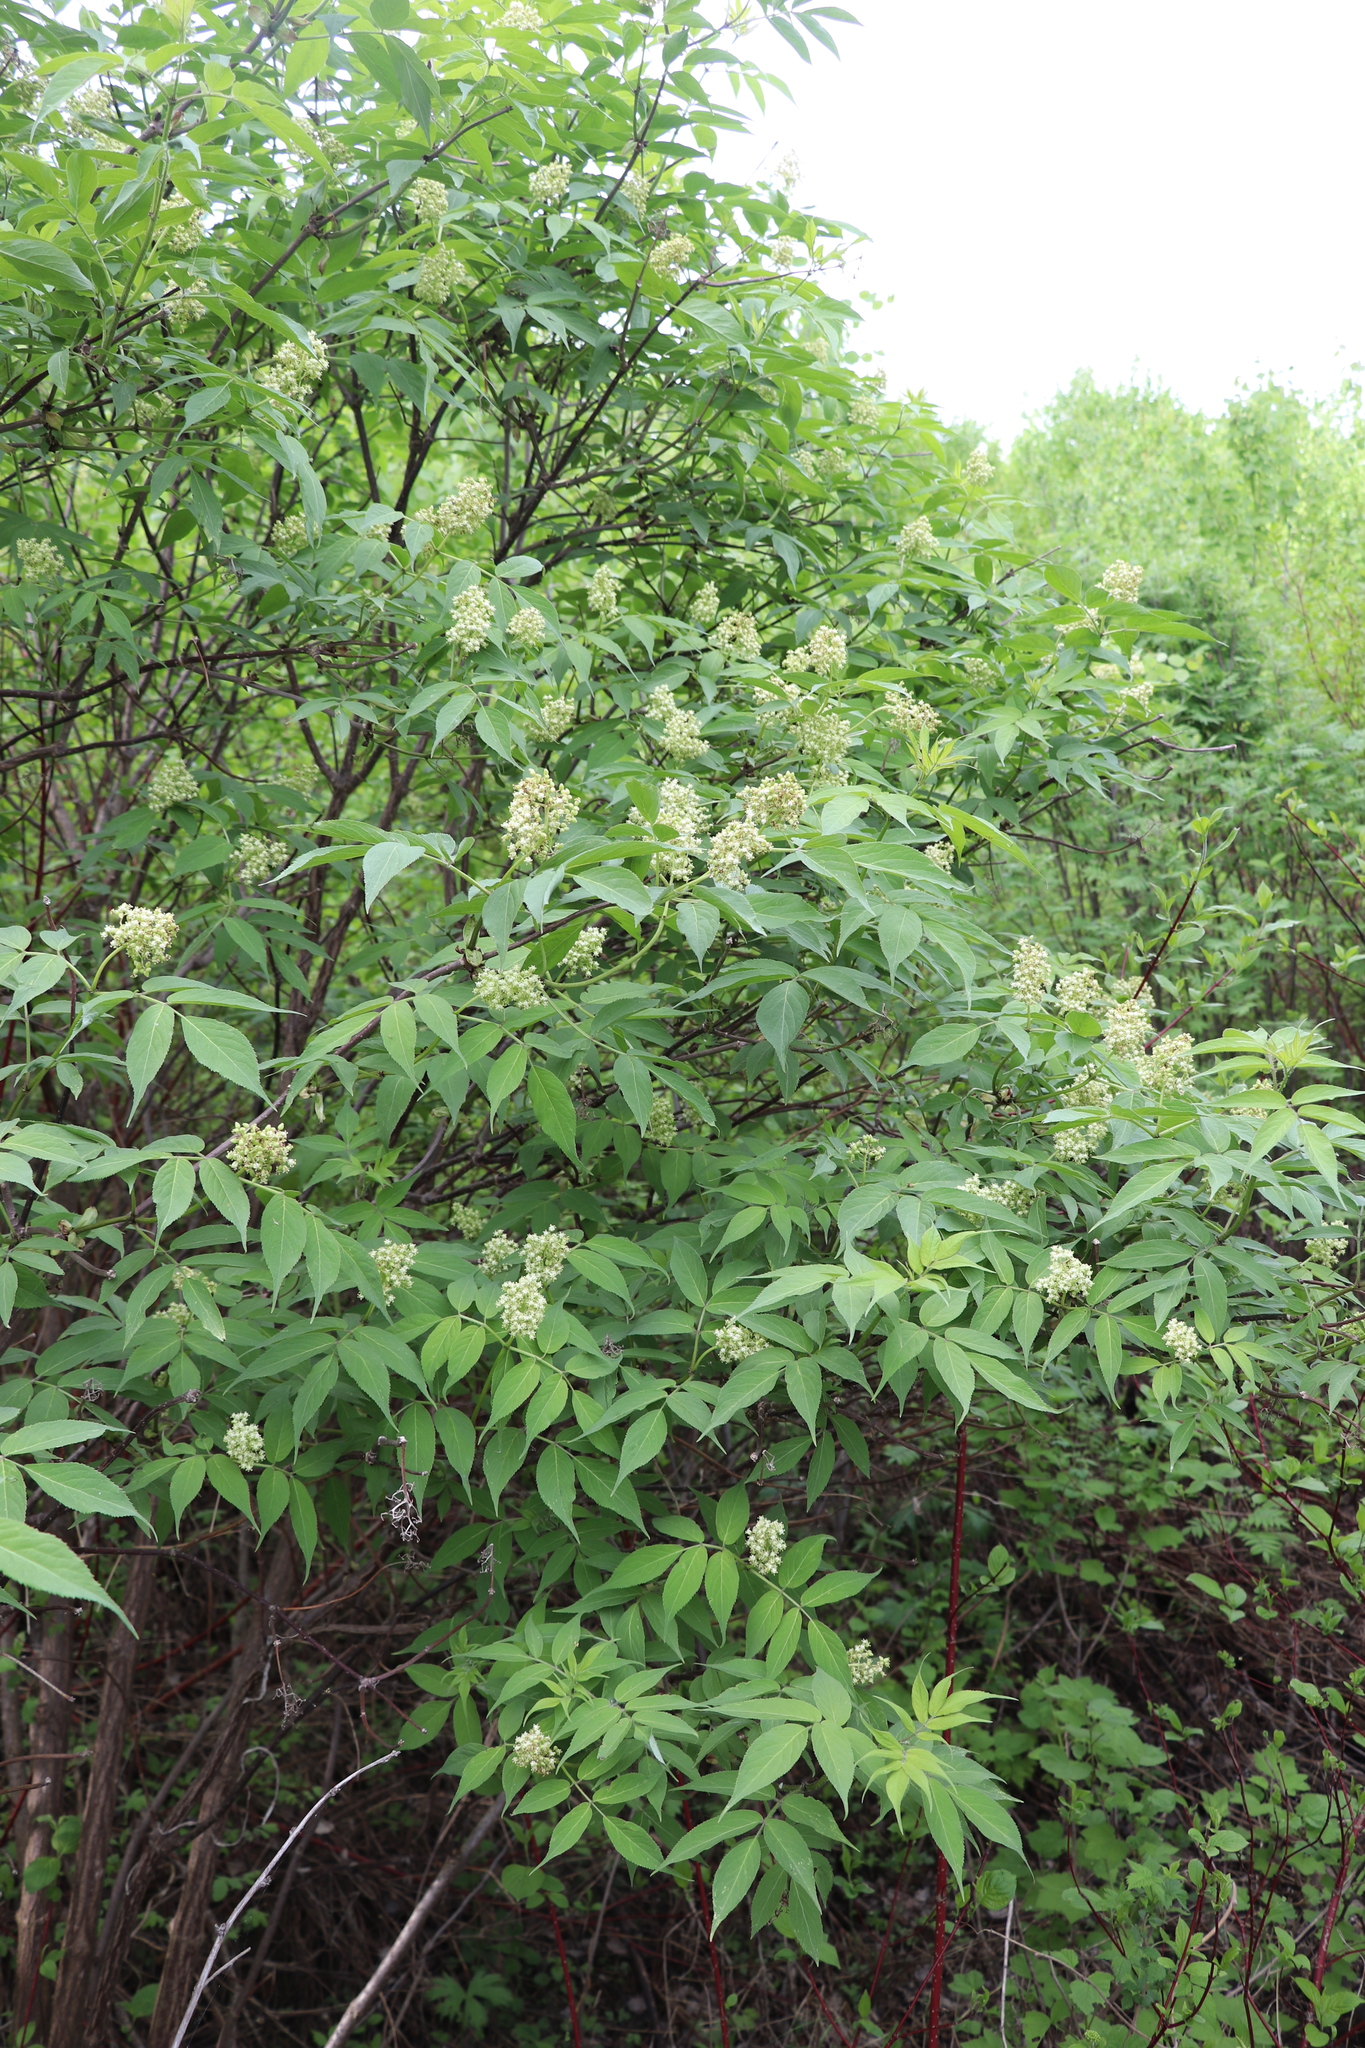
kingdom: Plantae
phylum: Tracheophyta
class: Magnoliopsida
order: Dipsacales
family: Viburnaceae
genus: Sambucus
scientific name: Sambucus sibirica
